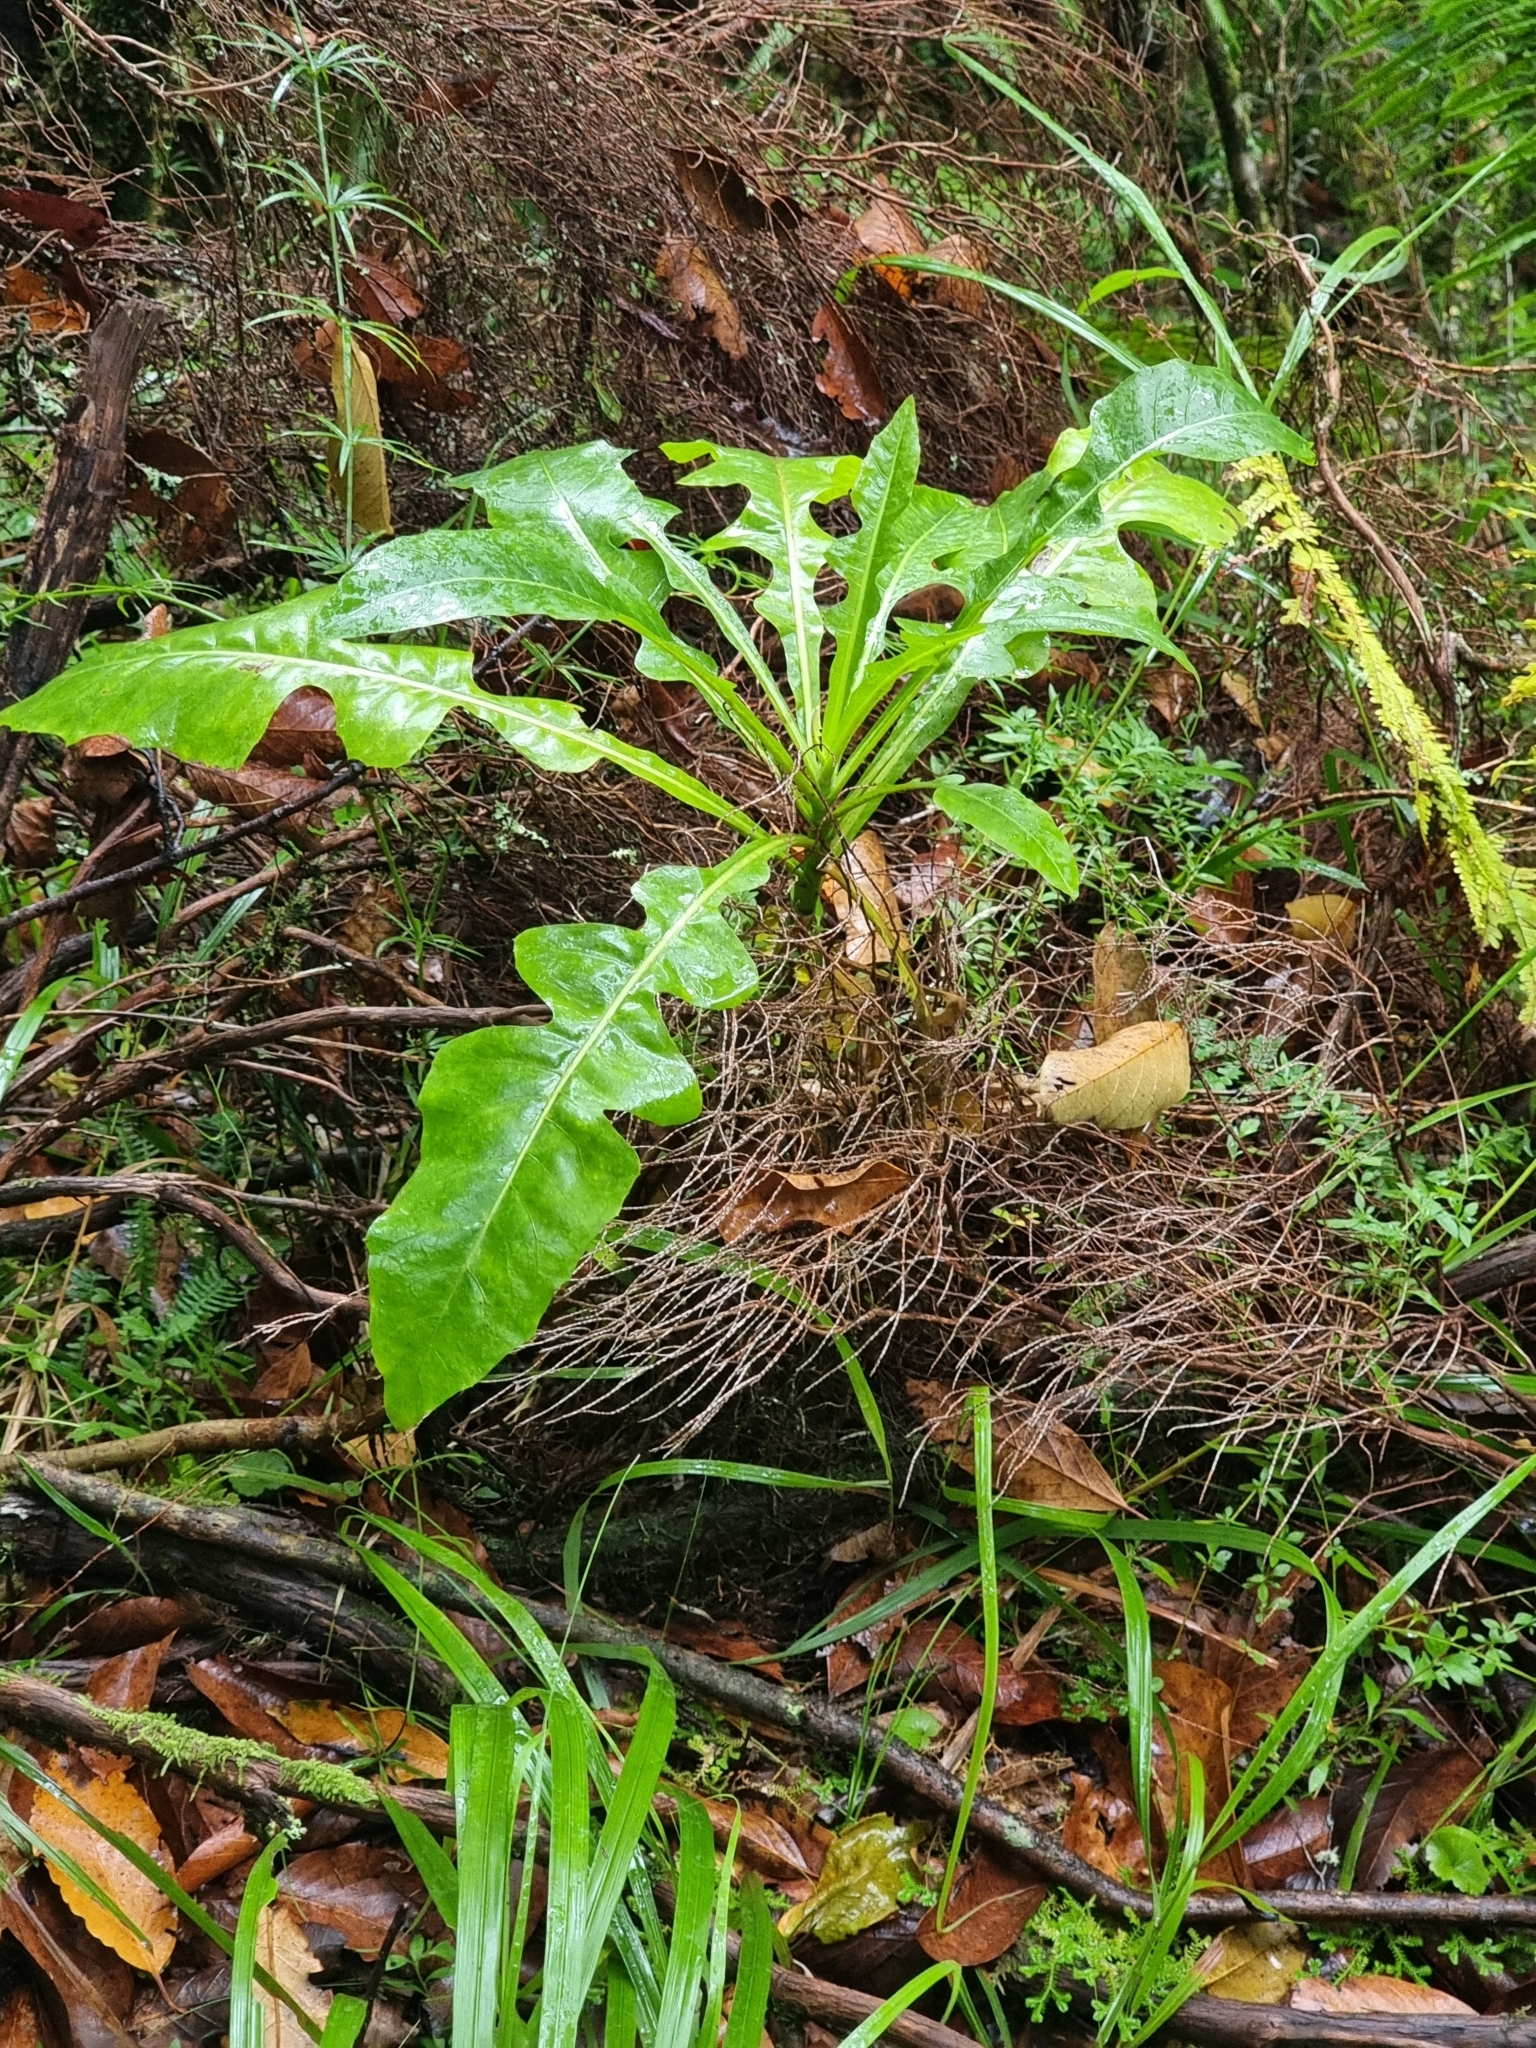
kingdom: Plantae
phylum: Tracheophyta
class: Magnoliopsida
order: Asterales
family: Asteraceae
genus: Sonchus
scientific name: Sonchus fruticosus
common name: Shrubby sow-thistle
